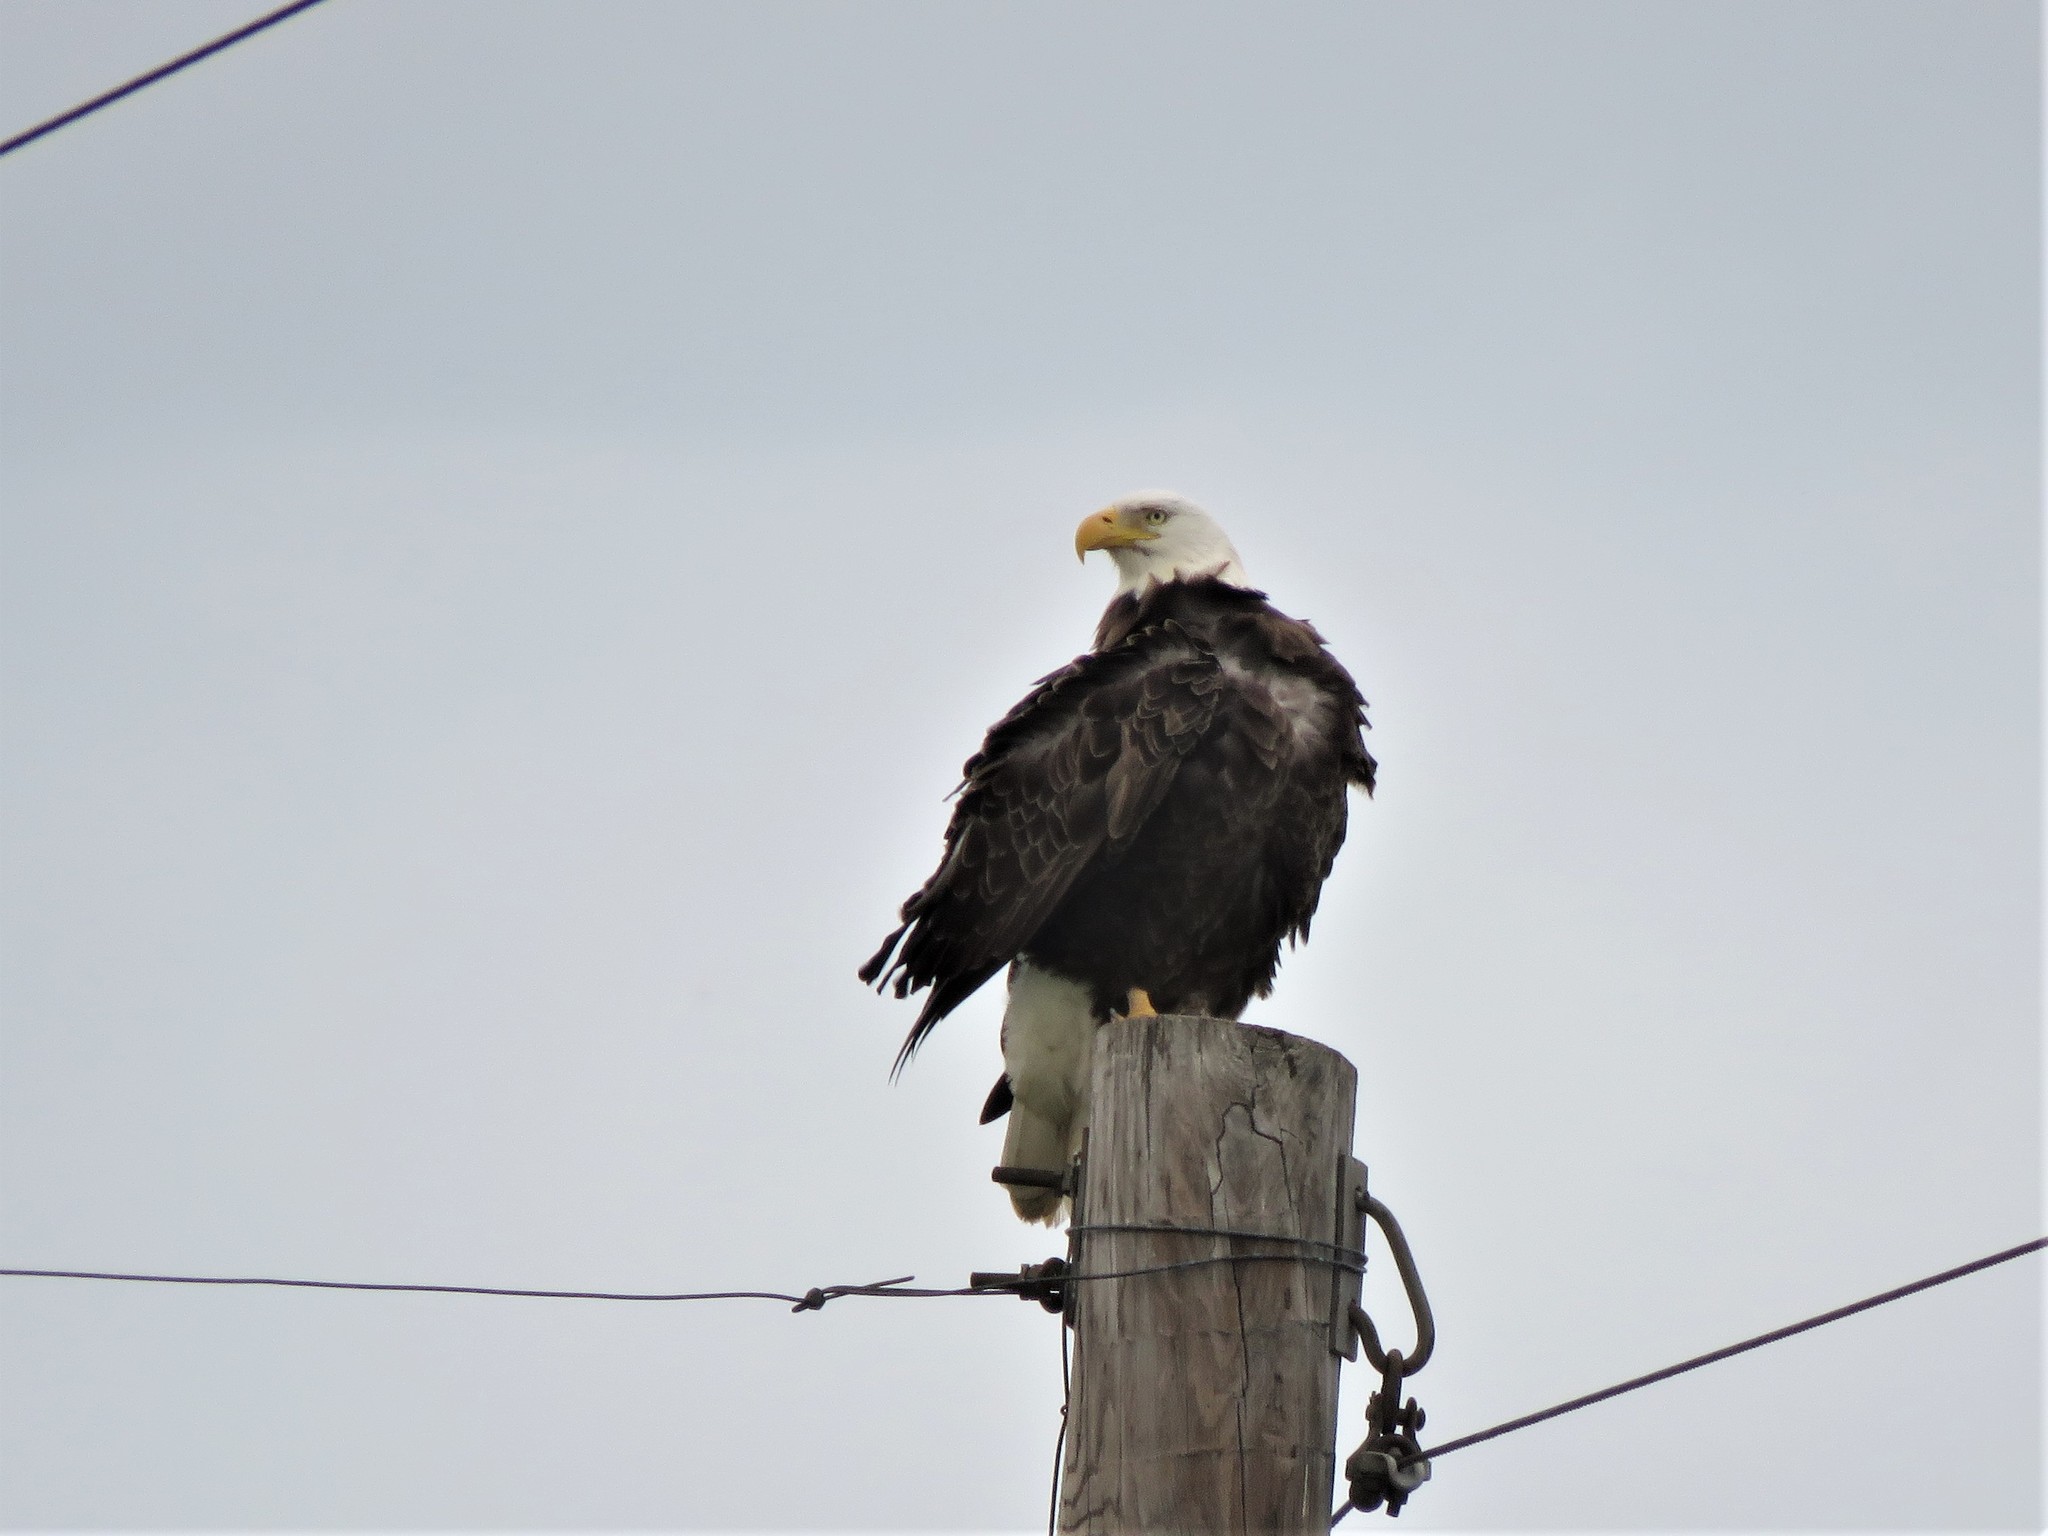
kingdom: Animalia
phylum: Chordata
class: Aves
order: Accipitriformes
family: Accipitridae
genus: Haliaeetus
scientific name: Haliaeetus leucocephalus
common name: Bald eagle
